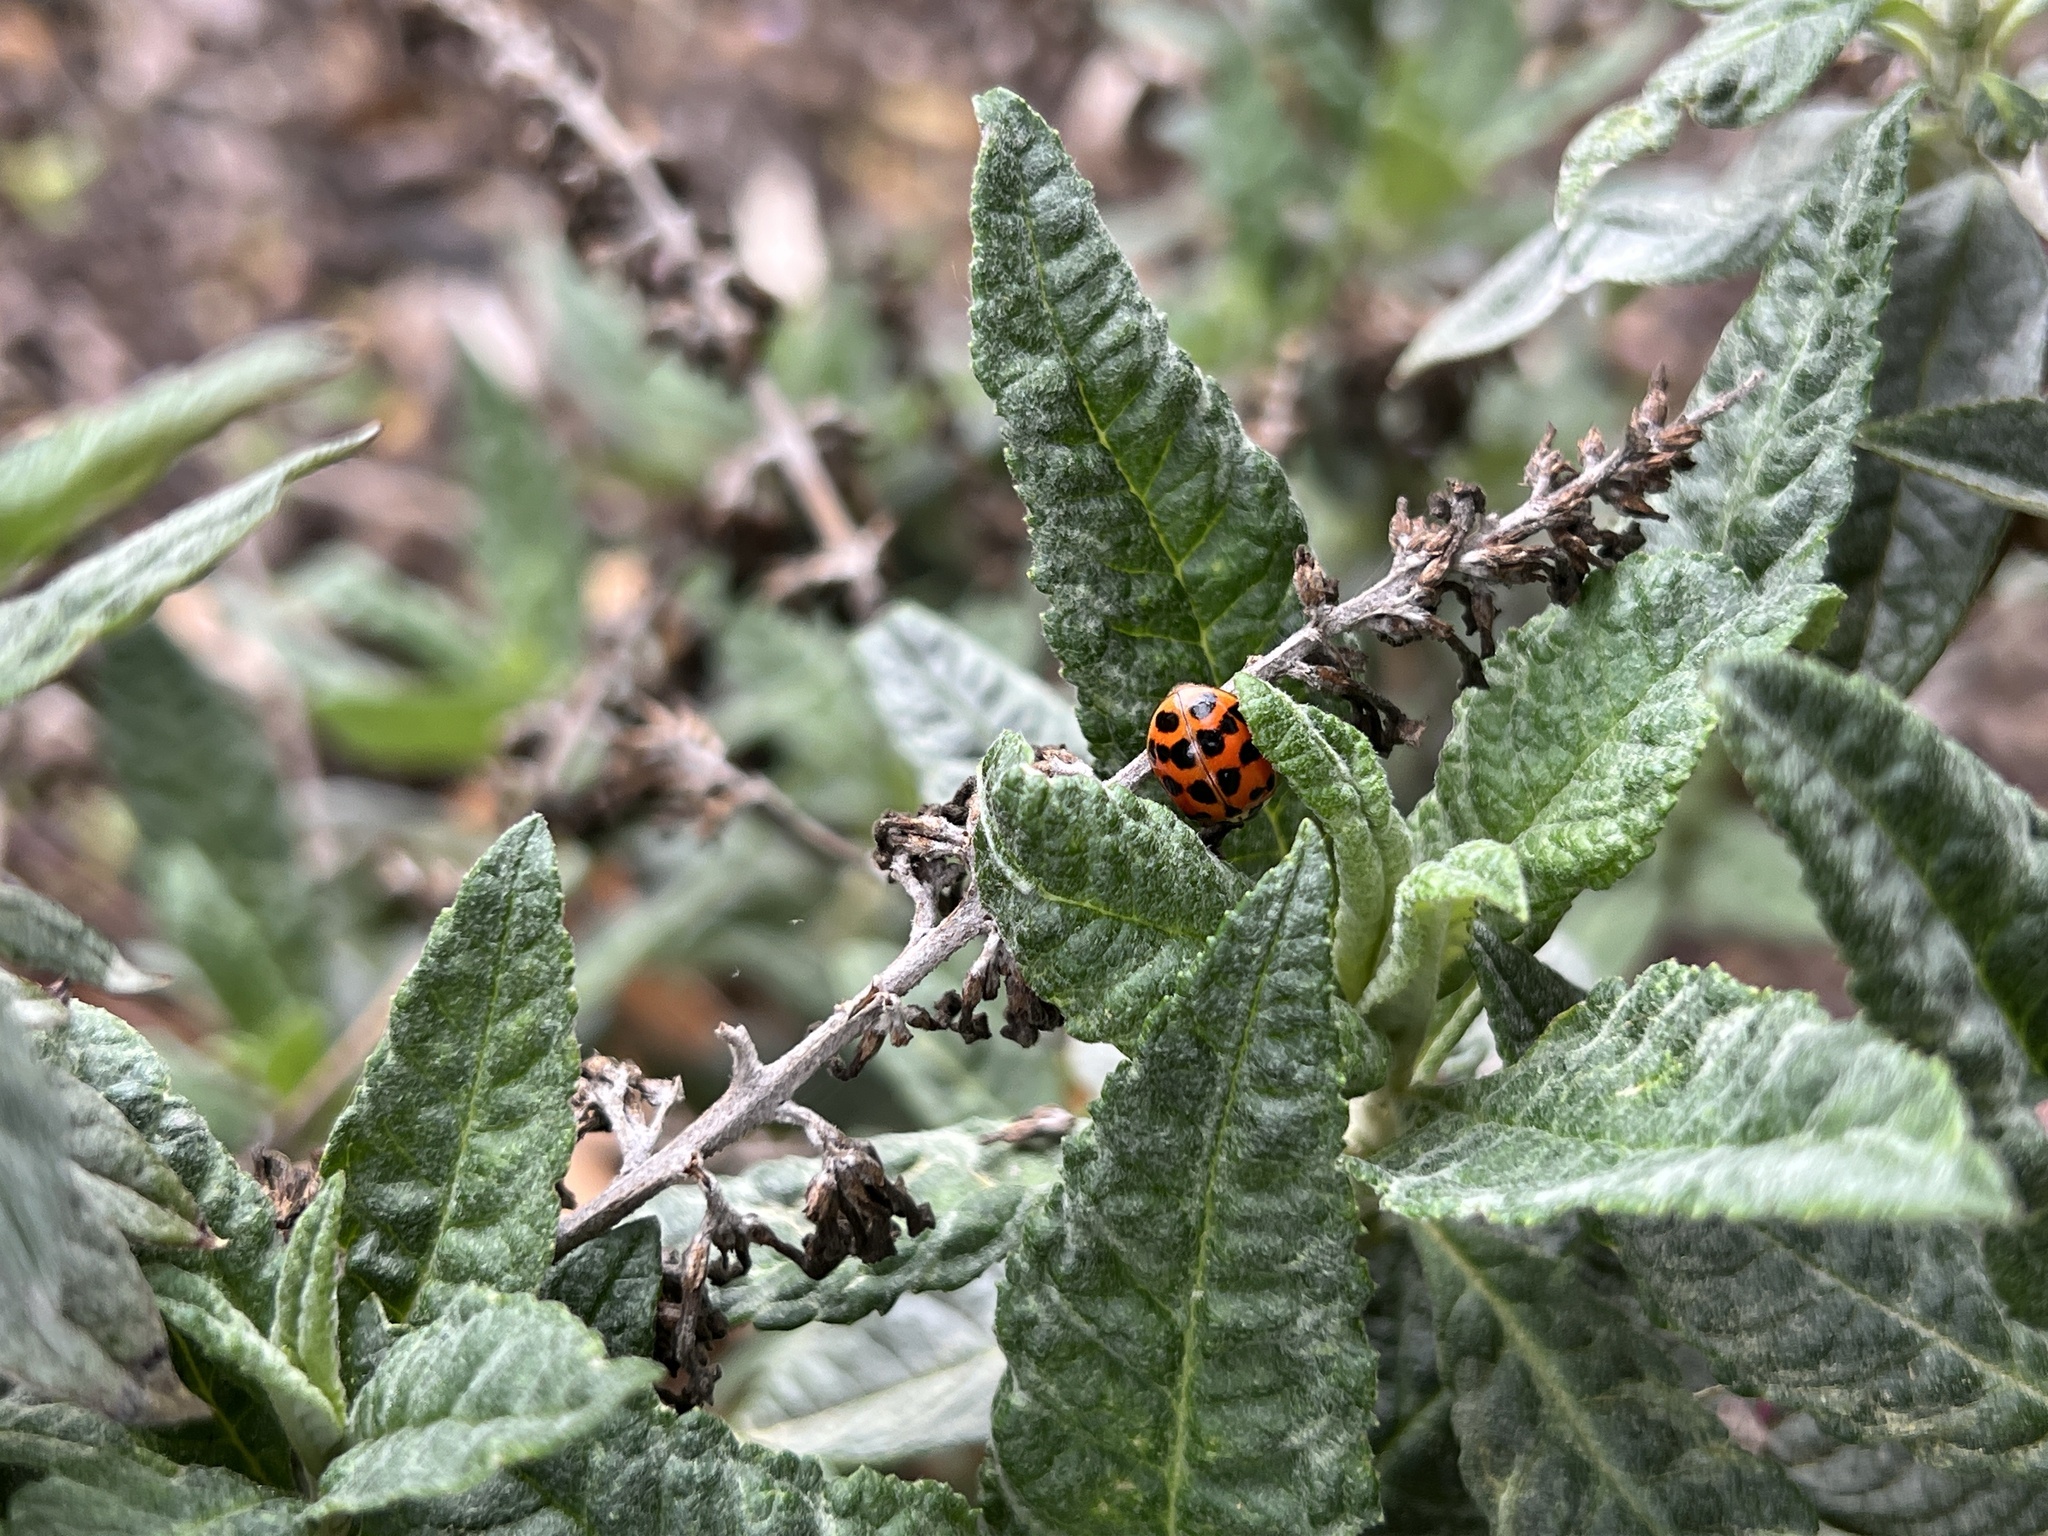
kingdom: Animalia
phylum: Arthropoda
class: Insecta
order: Coleoptera
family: Coccinellidae
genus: Harmonia
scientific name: Harmonia axyridis
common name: Harlequin ladybird
